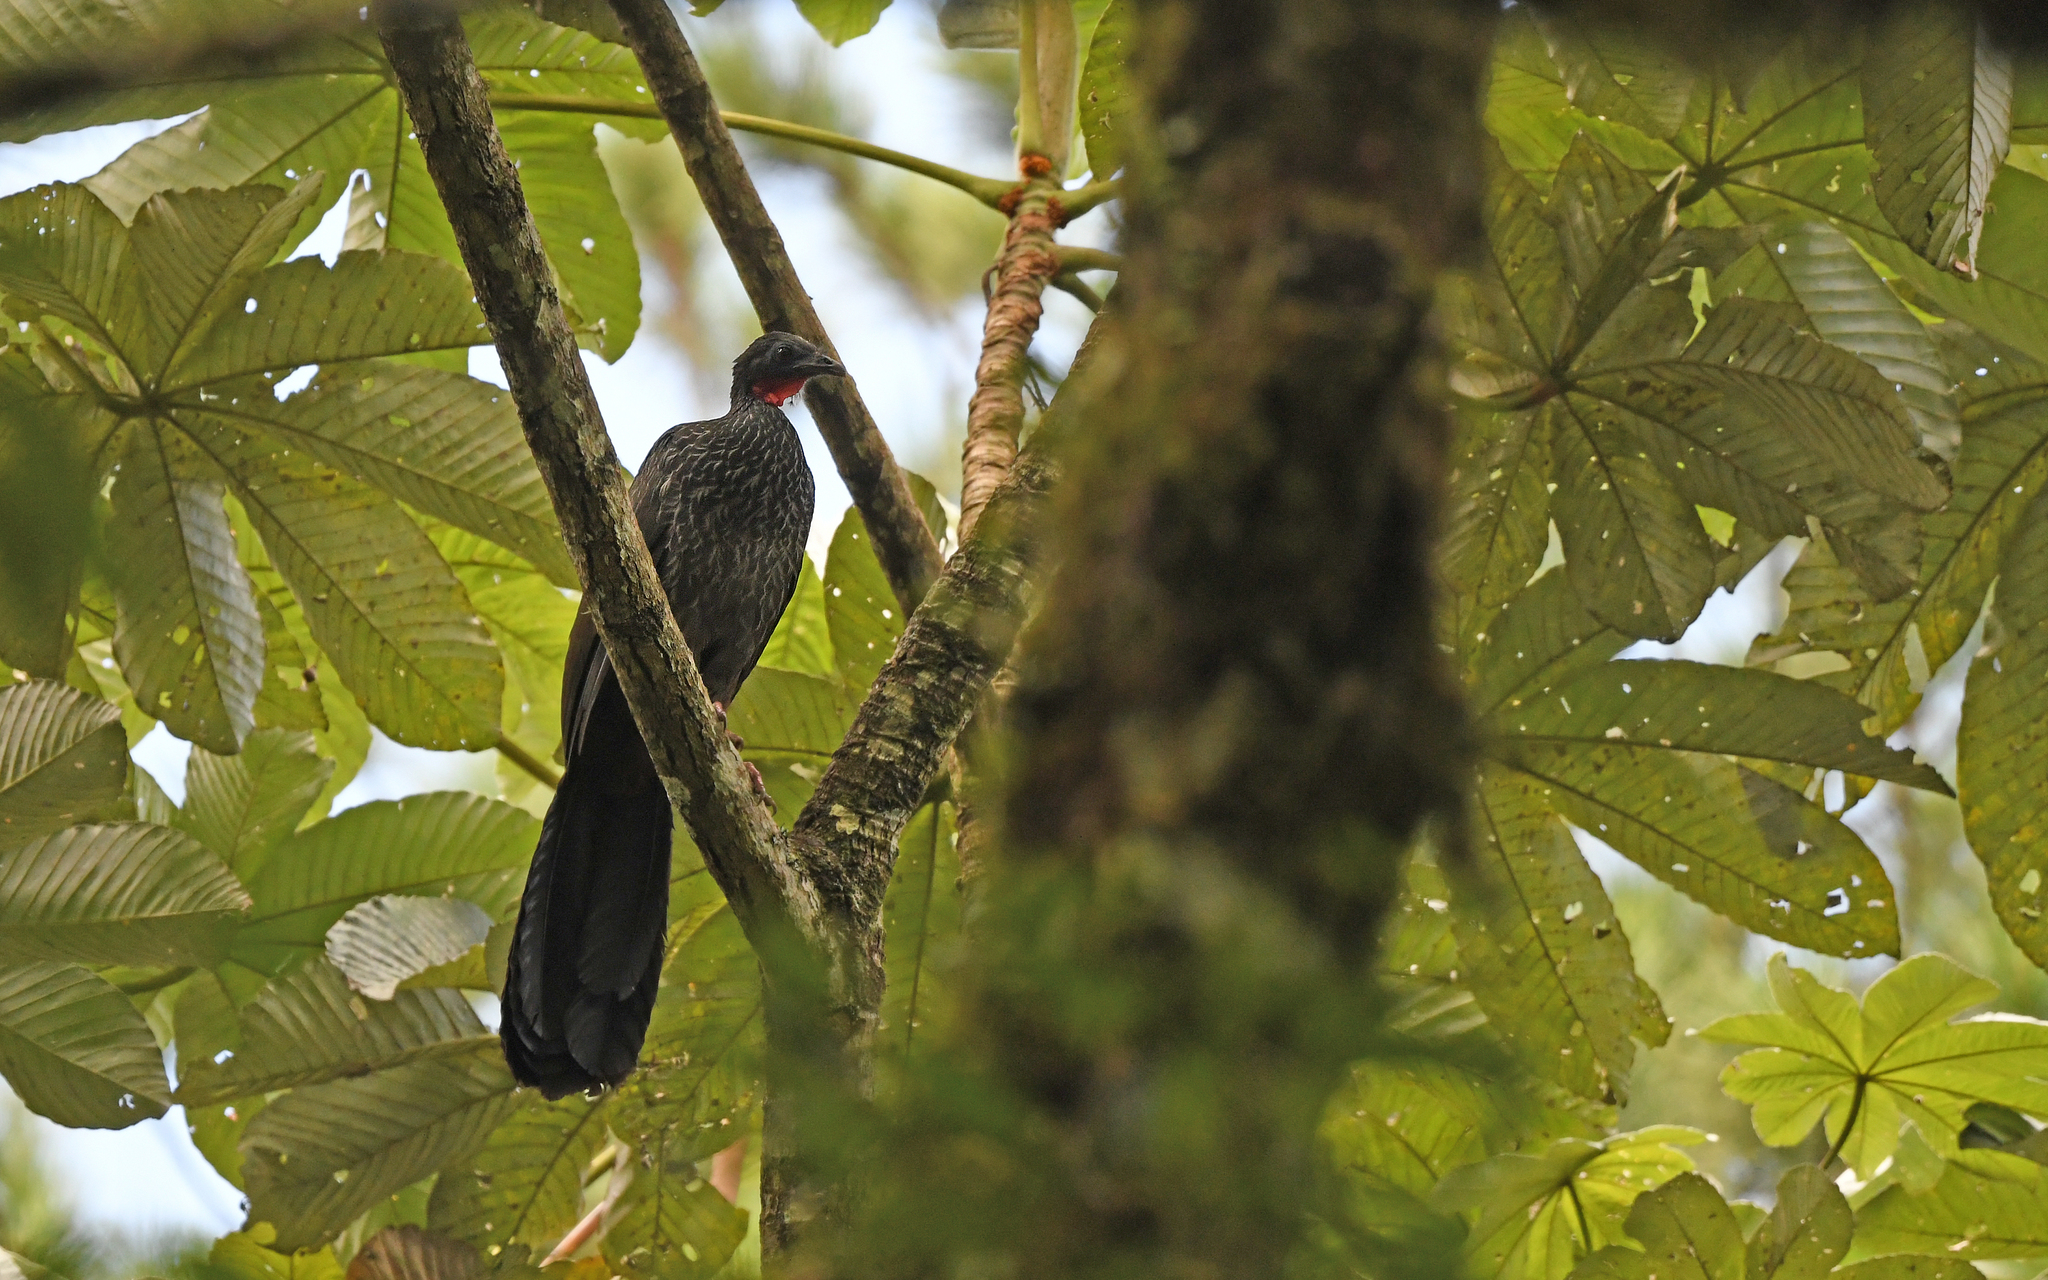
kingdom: Animalia
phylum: Chordata
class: Aves
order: Galliformes
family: Cracidae
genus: Penelope
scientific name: Penelope perspicax
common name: Cauca guan
